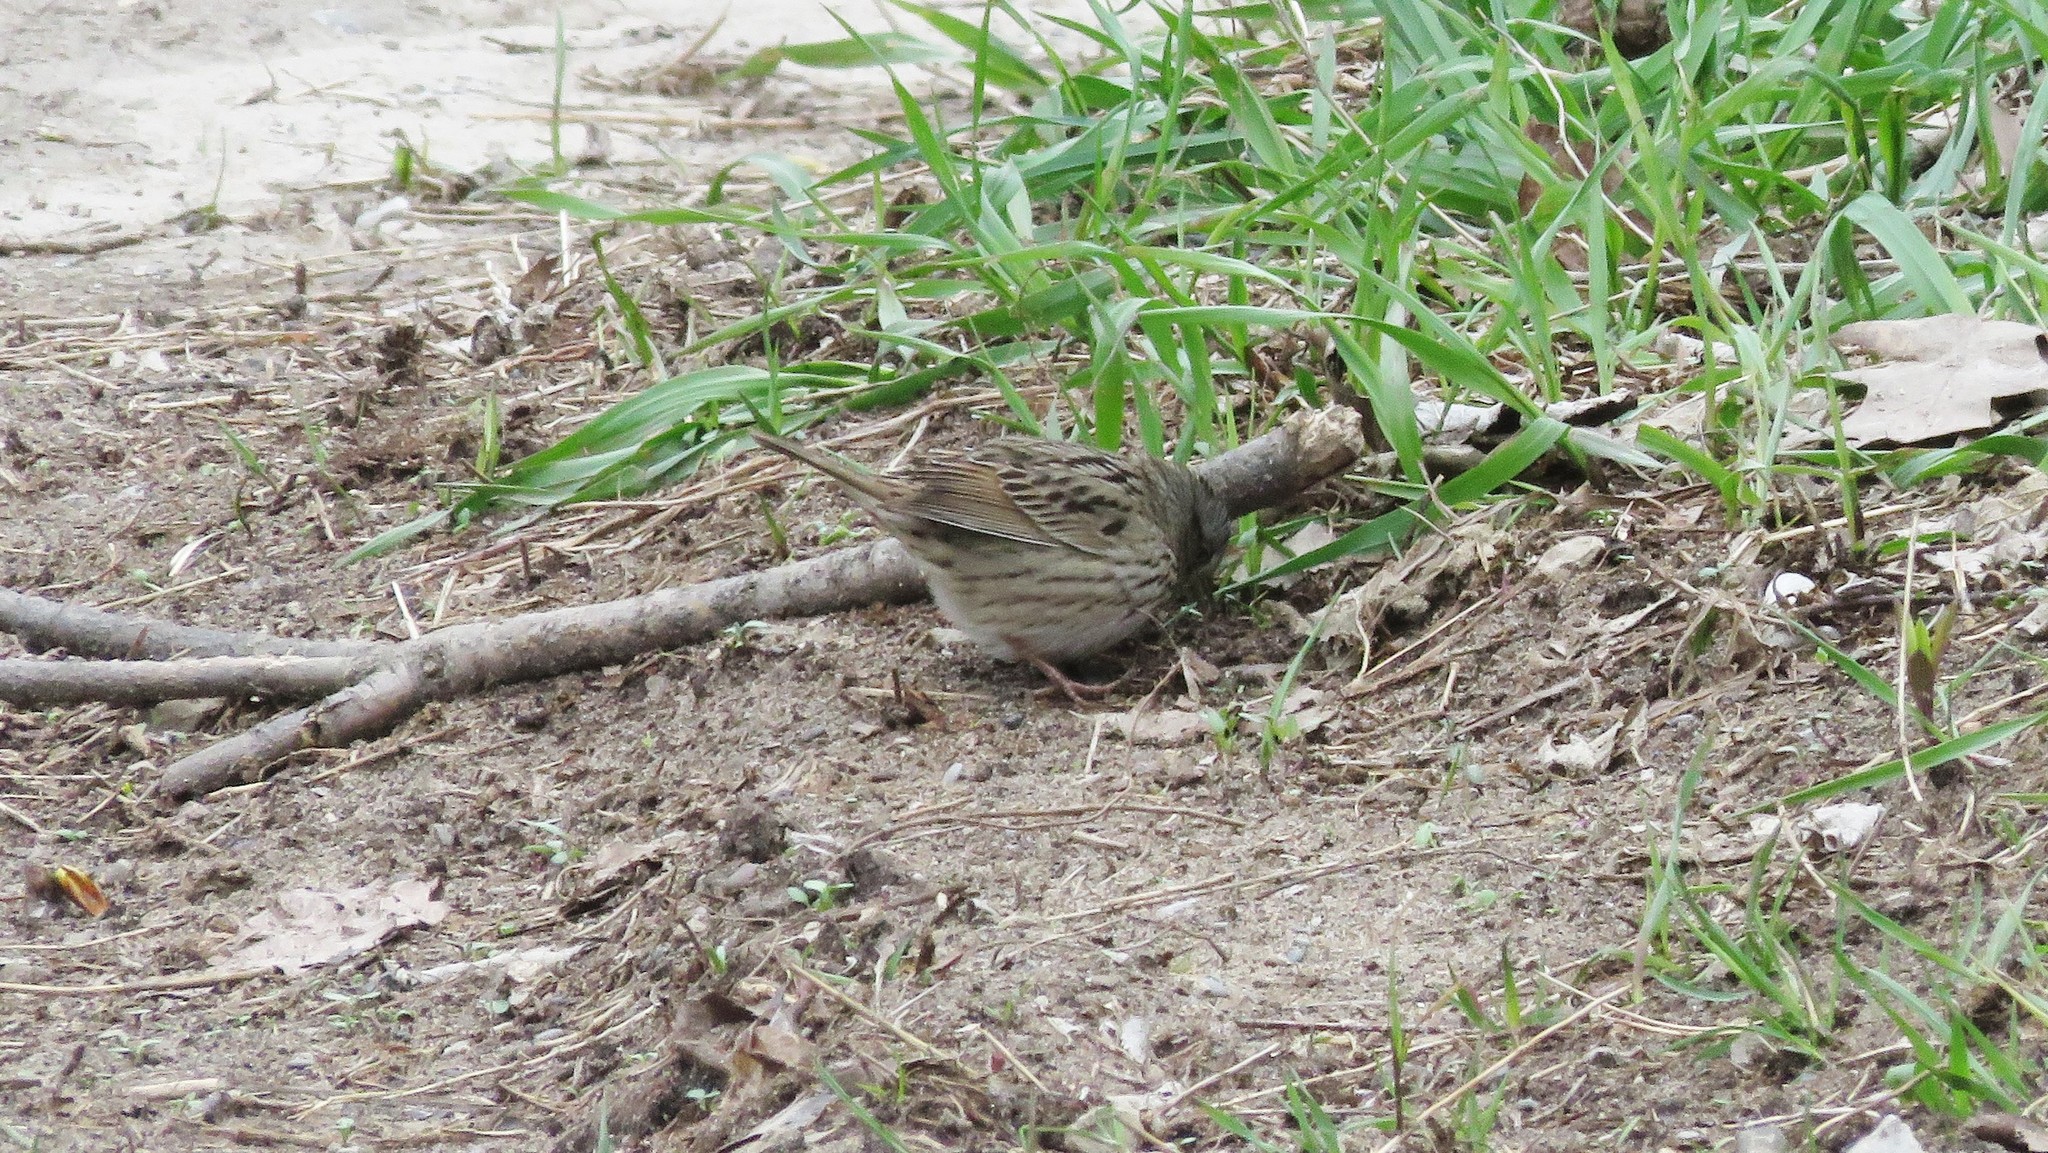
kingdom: Animalia
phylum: Chordata
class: Aves
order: Passeriformes
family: Passerellidae
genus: Melospiza
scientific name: Melospiza lincolnii
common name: Lincoln's sparrow
